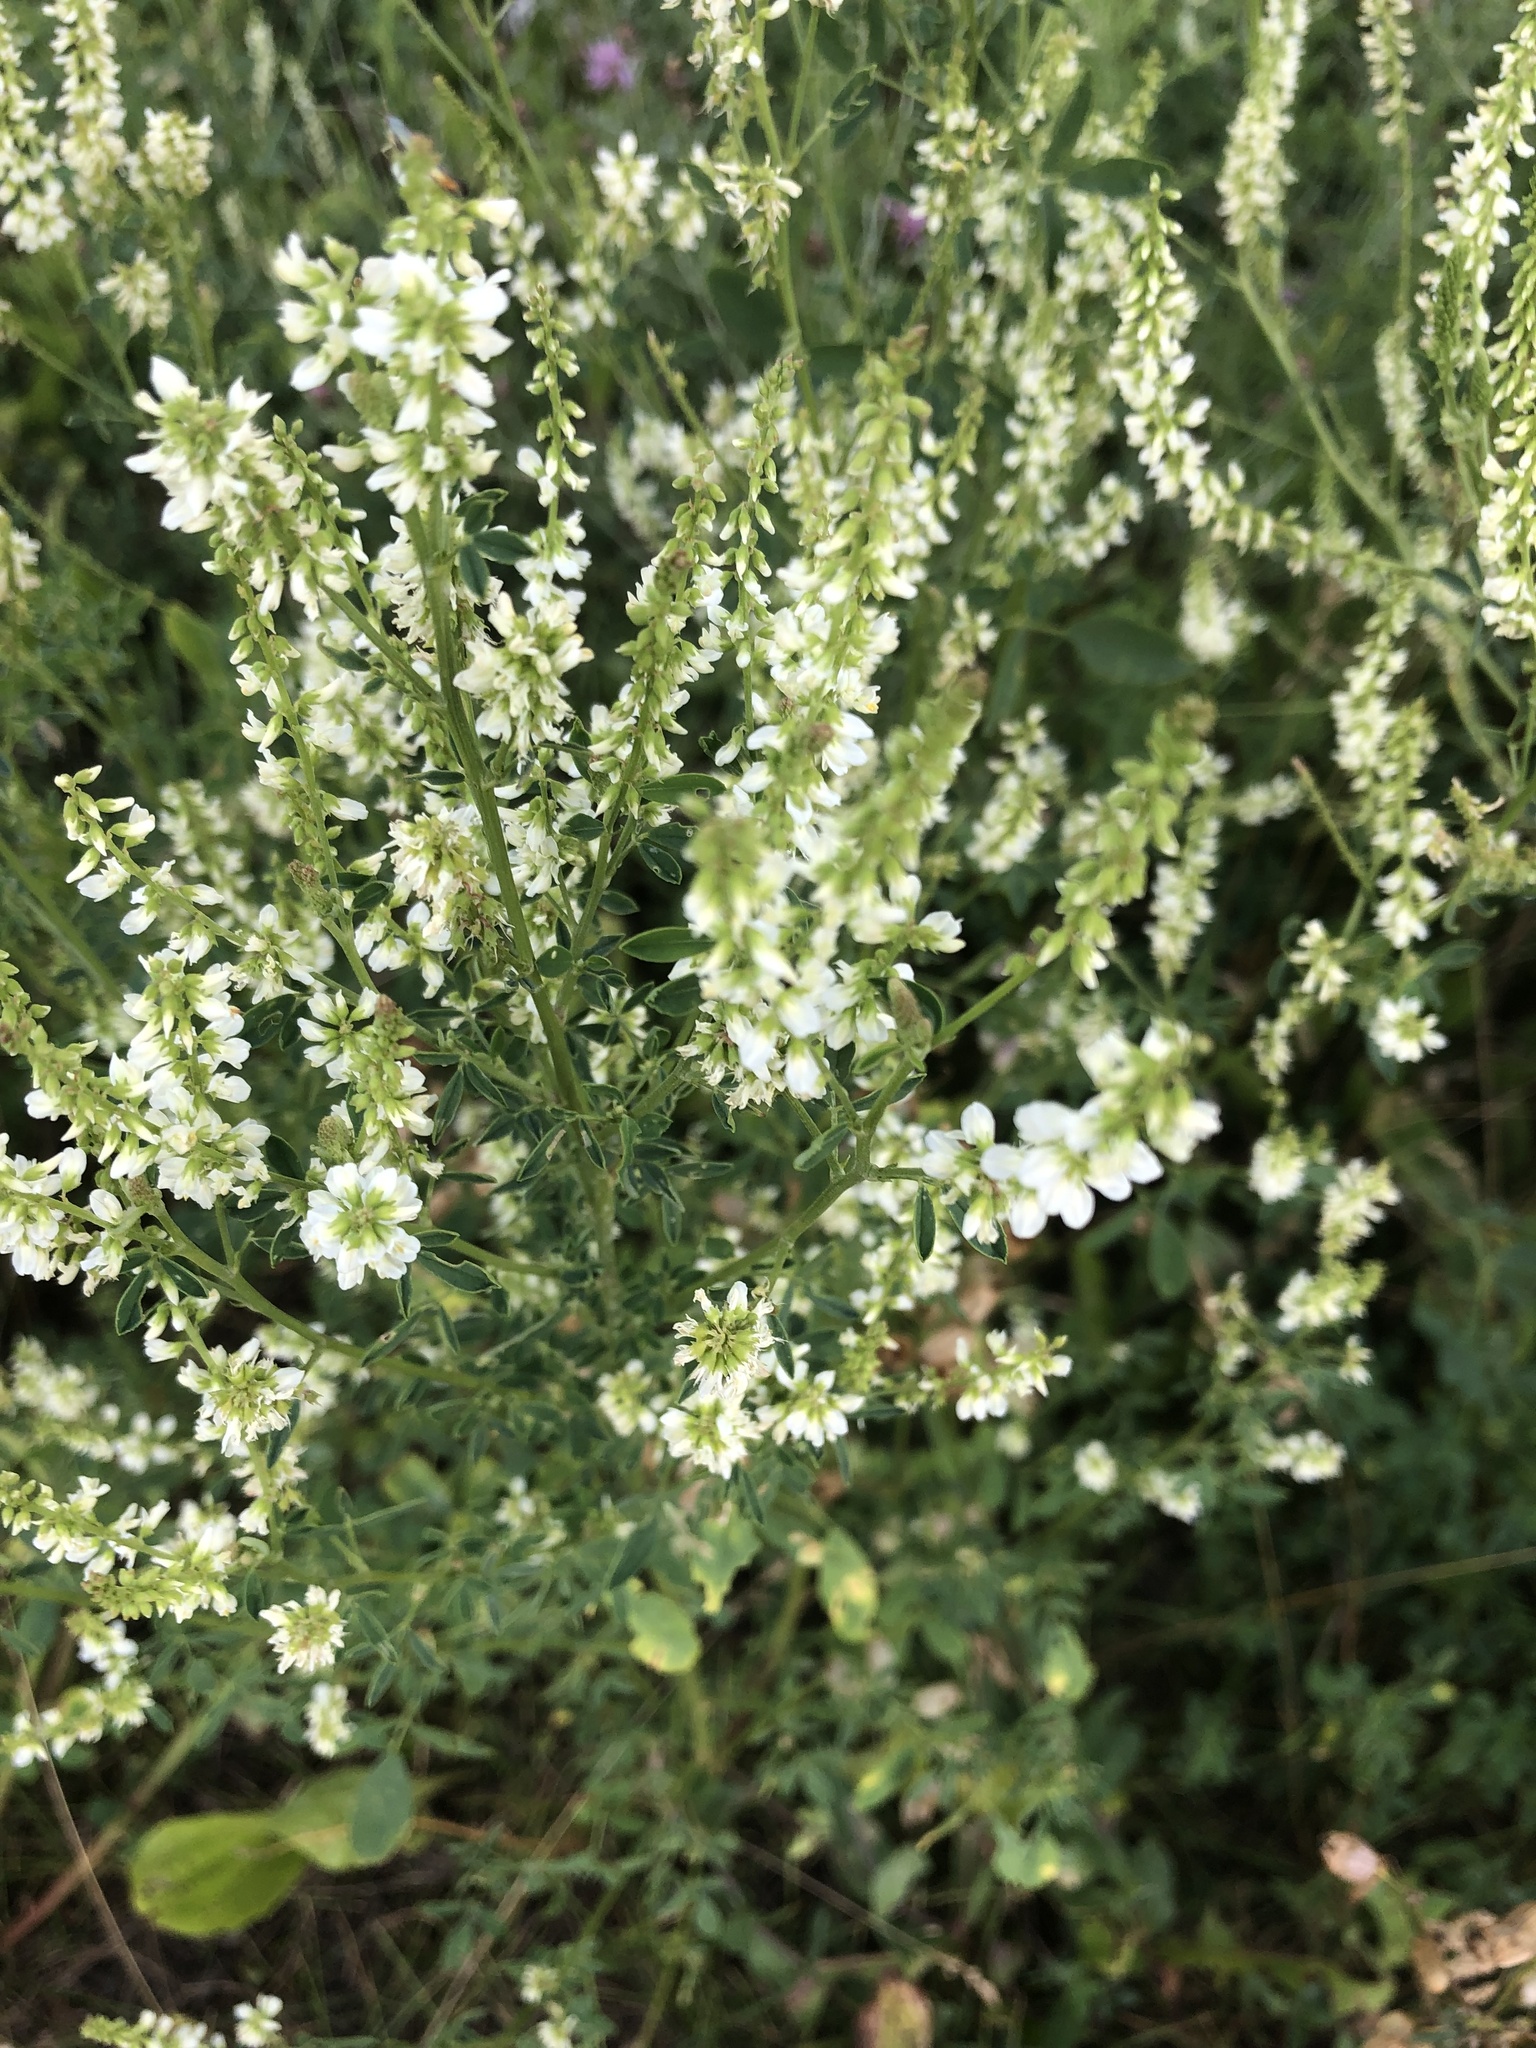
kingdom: Plantae
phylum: Tracheophyta
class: Magnoliopsida
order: Fabales
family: Fabaceae
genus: Melilotus
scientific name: Melilotus albus
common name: White melilot
